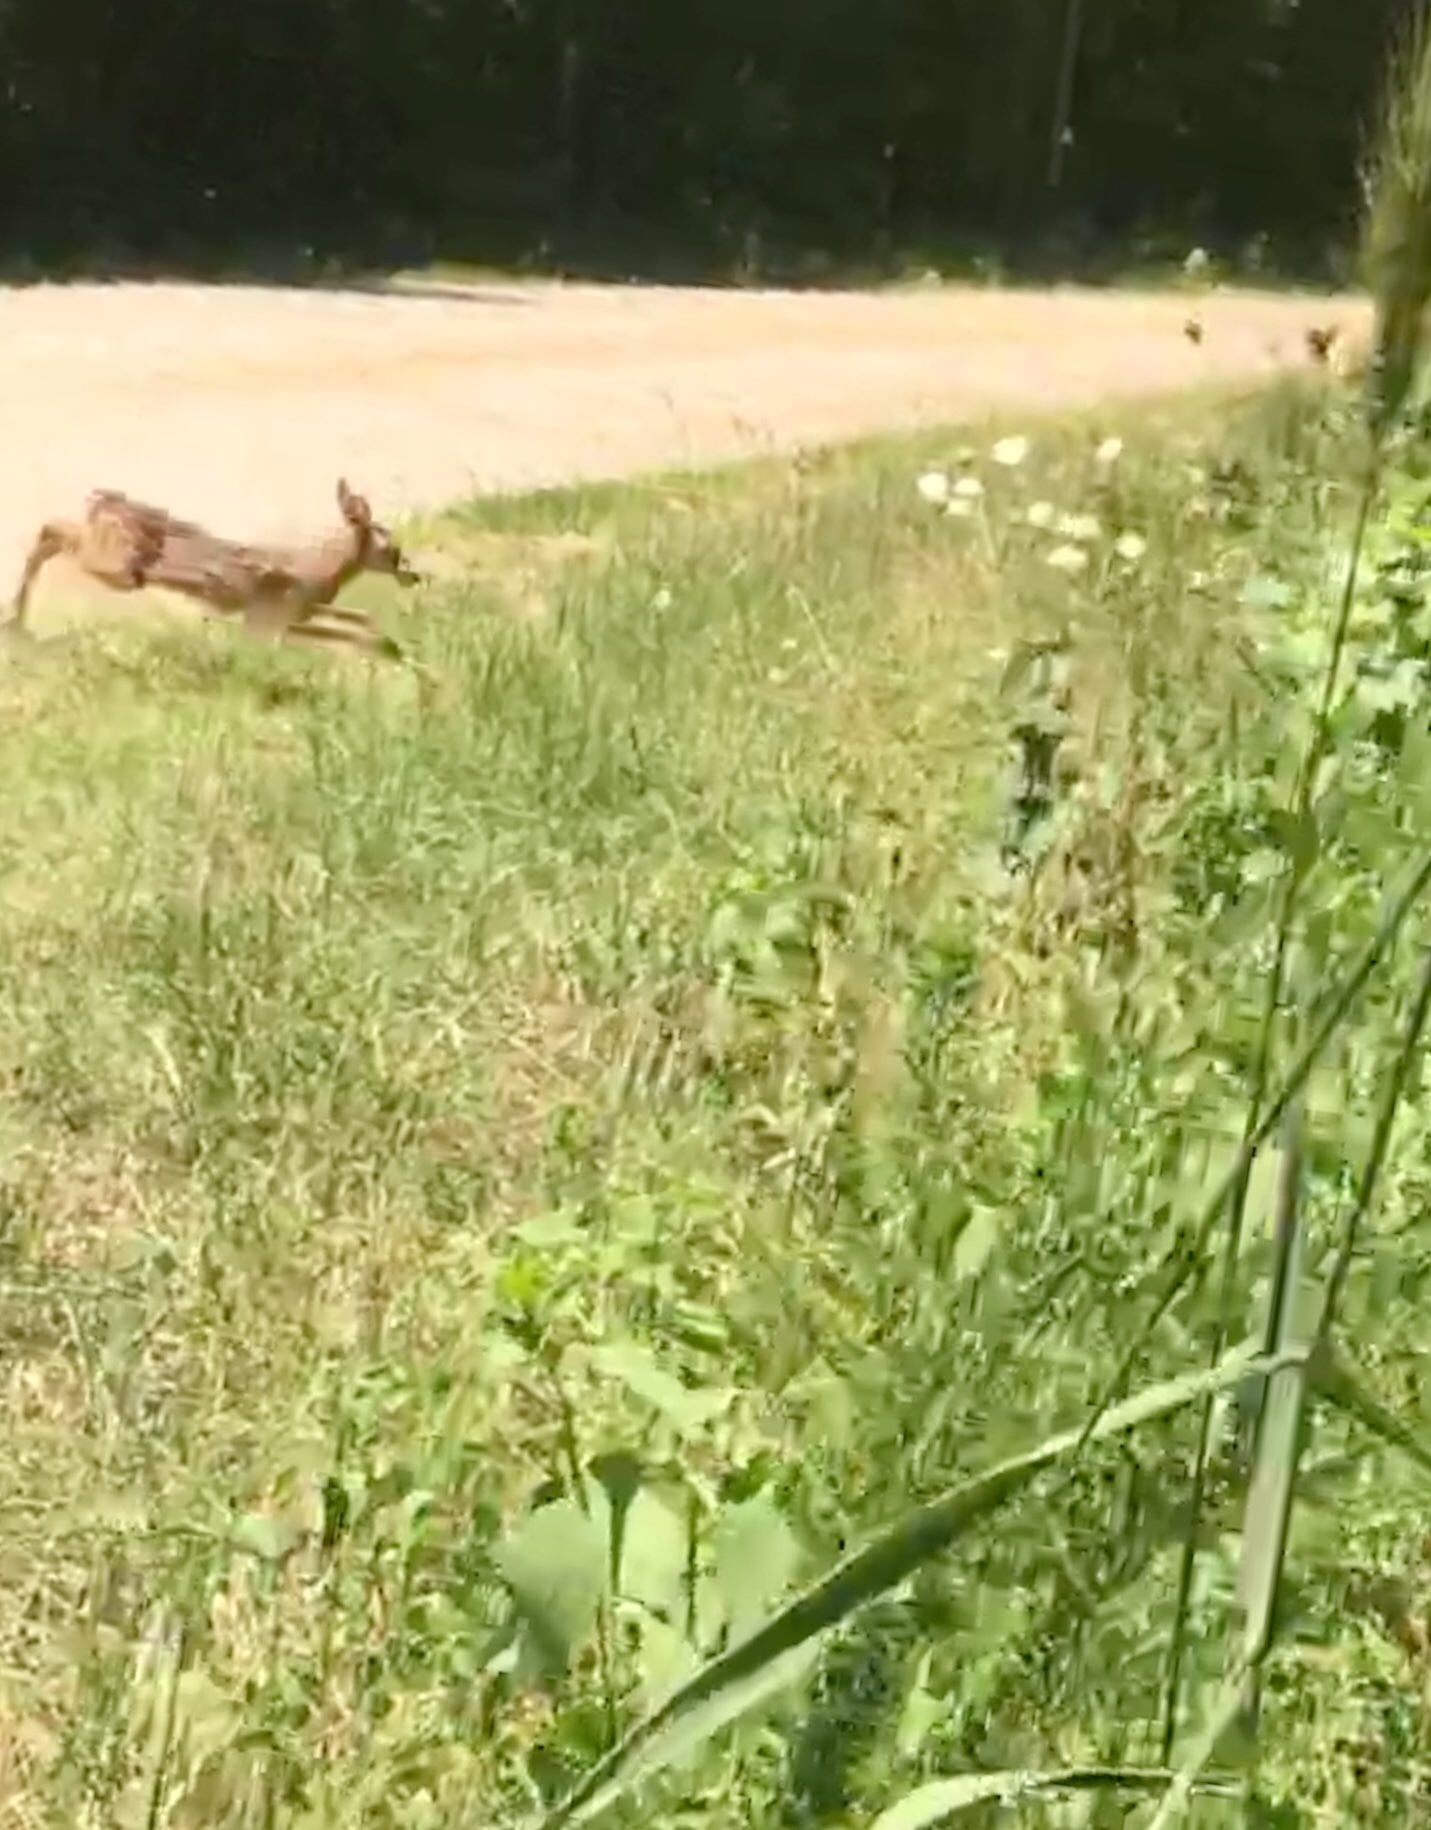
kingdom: Animalia
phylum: Chordata
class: Mammalia
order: Artiodactyla
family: Cervidae
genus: Odocoileus
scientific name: Odocoileus virginianus
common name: White-tailed deer
